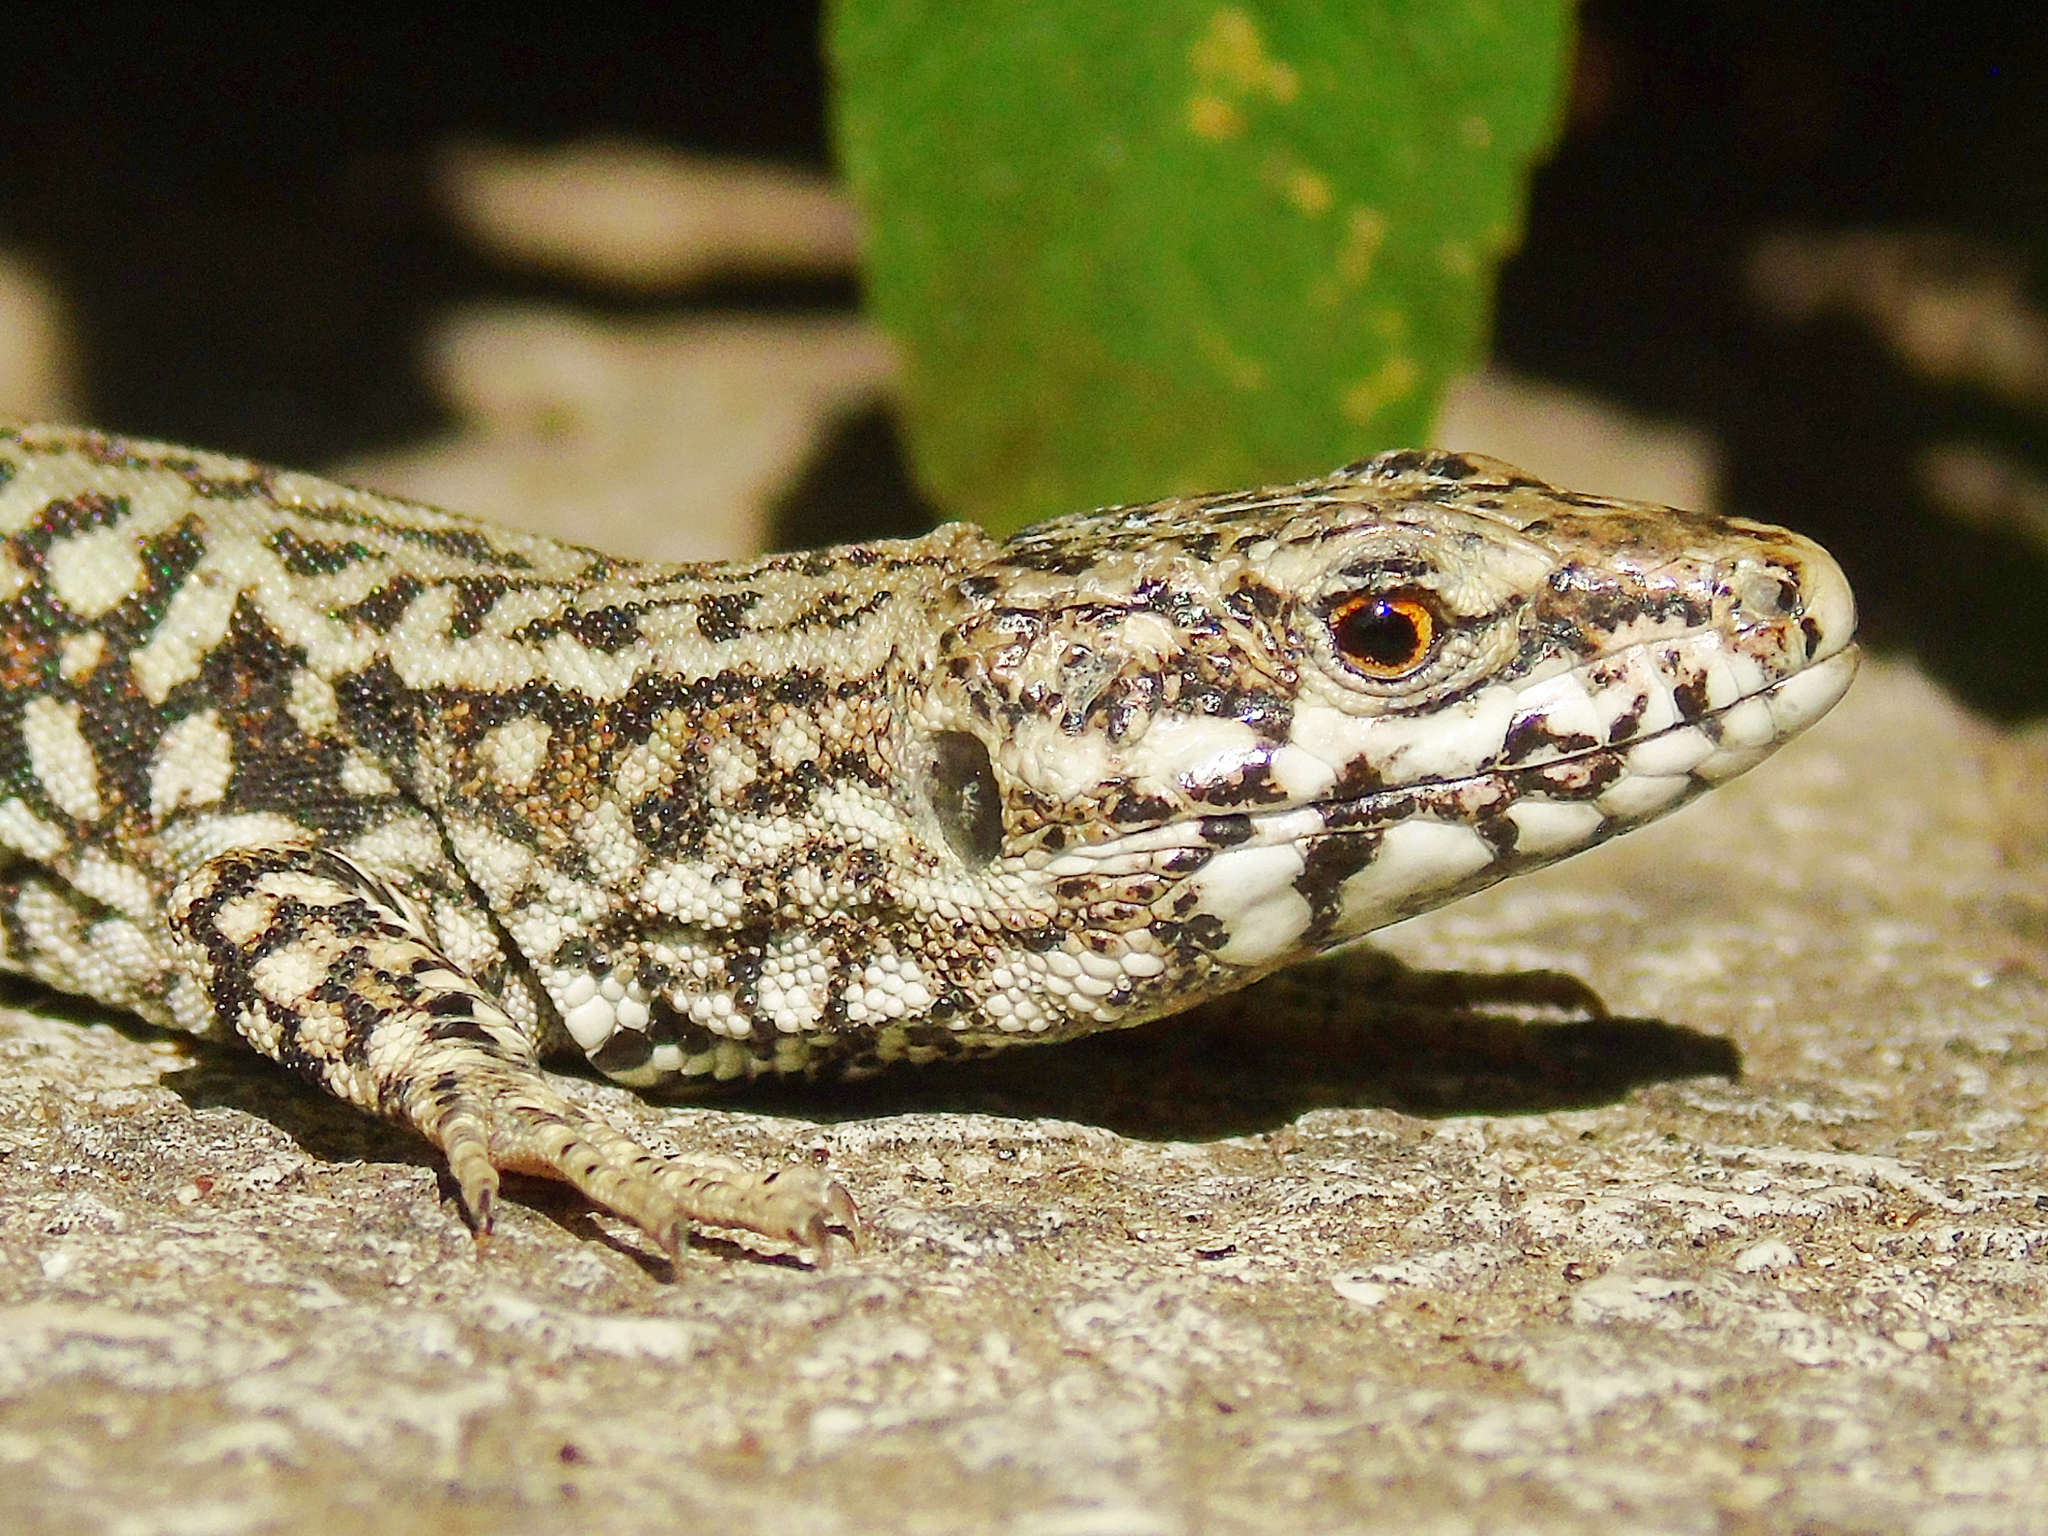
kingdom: Animalia
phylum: Chordata
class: Squamata
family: Lacertidae
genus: Podarcis
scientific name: Podarcis muralis
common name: Common wall lizard
